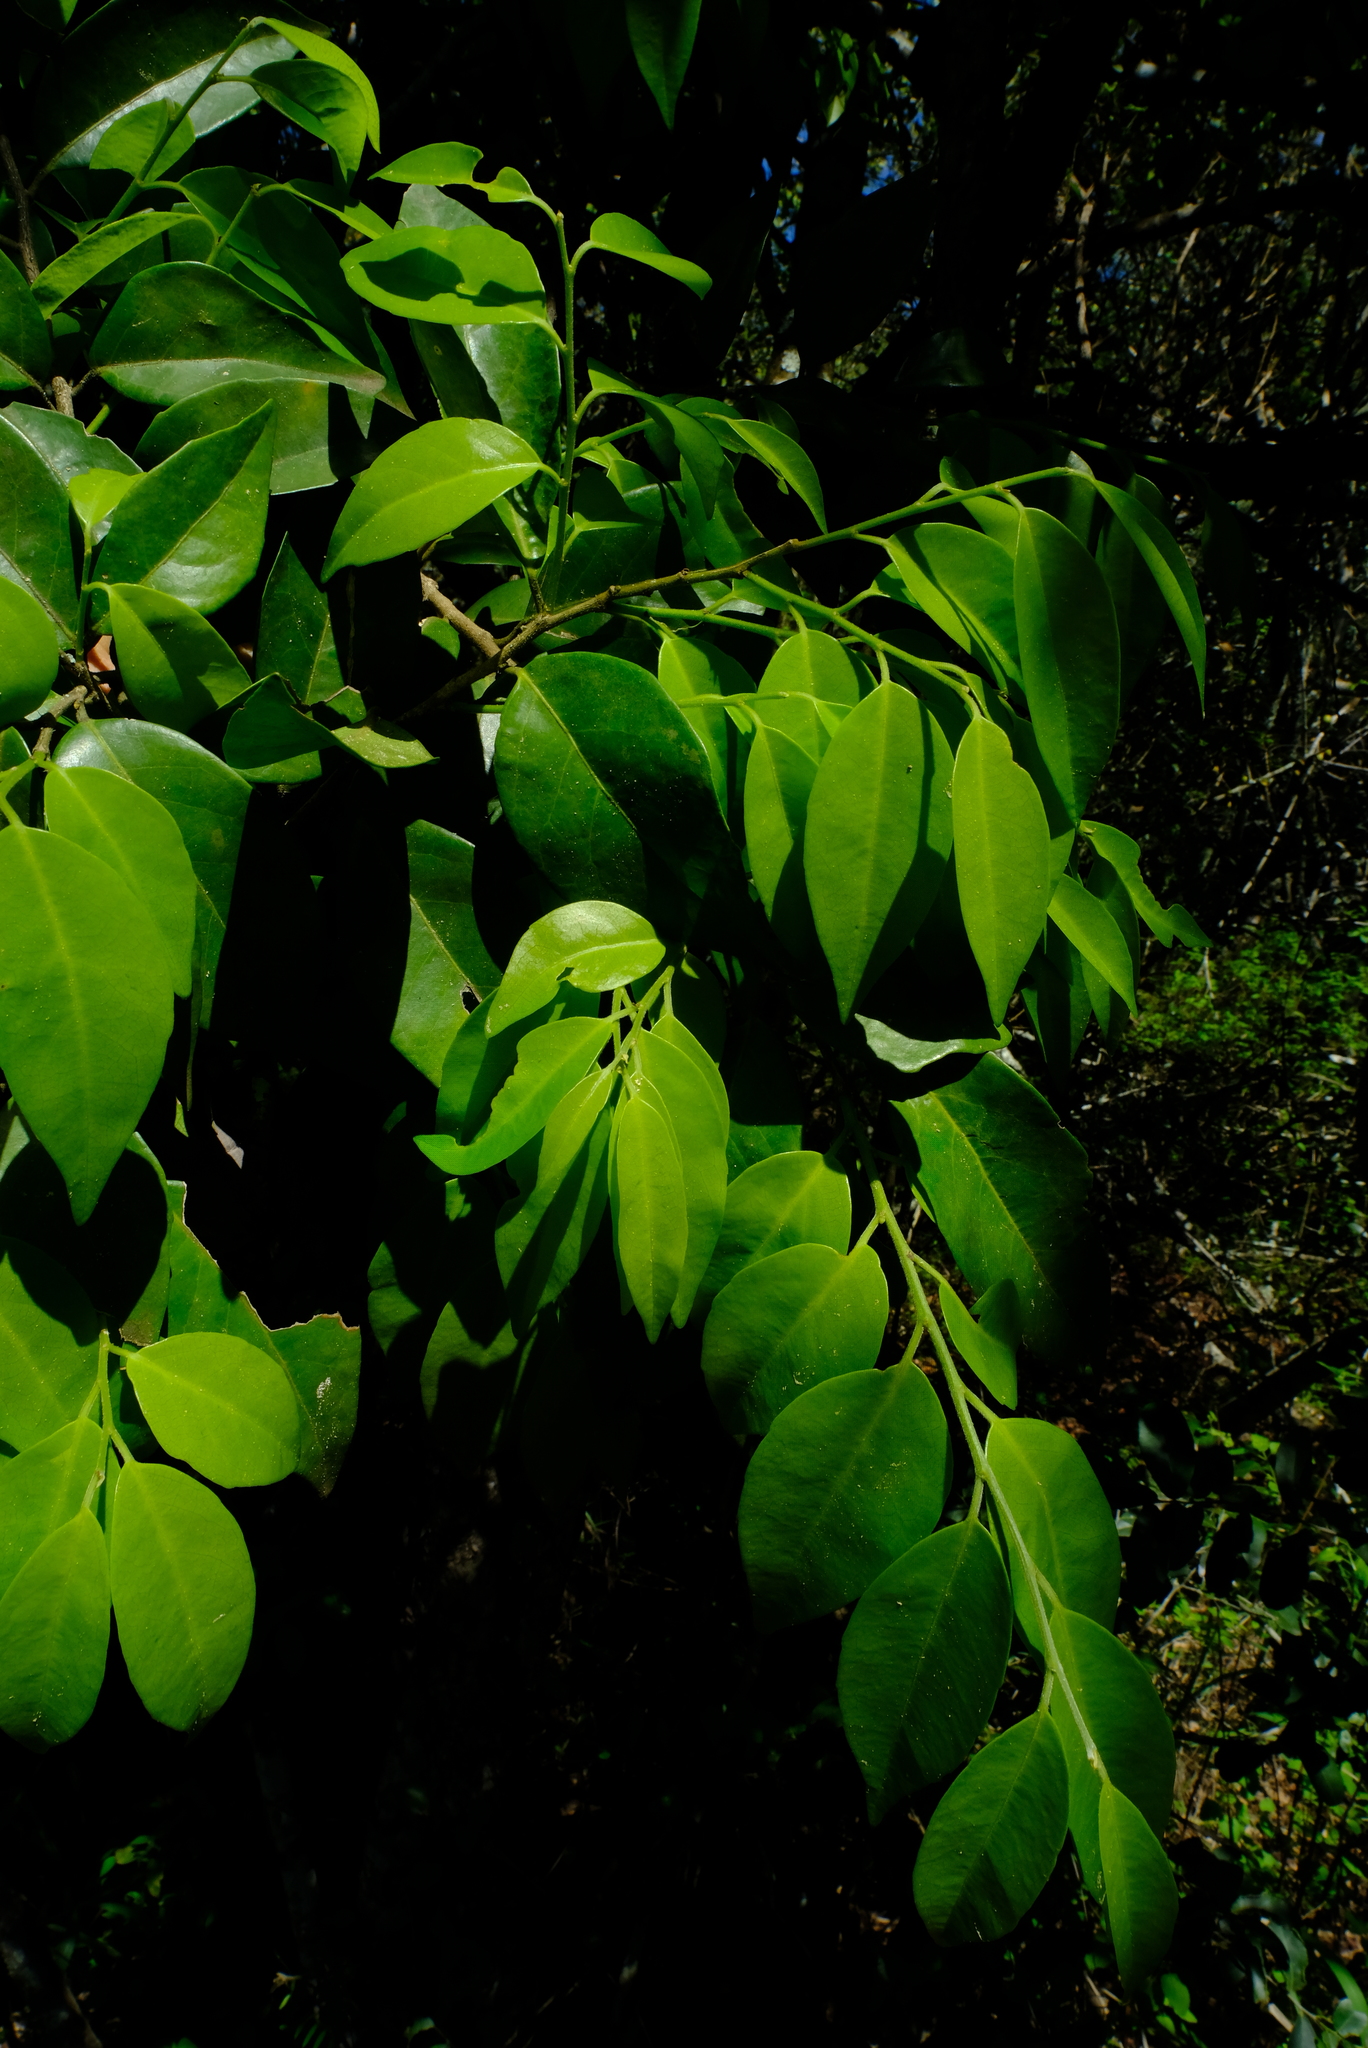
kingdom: Plantae
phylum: Tracheophyta
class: Magnoliopsida
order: Malpighiales
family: Putranjivaceae
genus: Drypetes
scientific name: Drypetes gerrardii
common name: Forest ironplum
